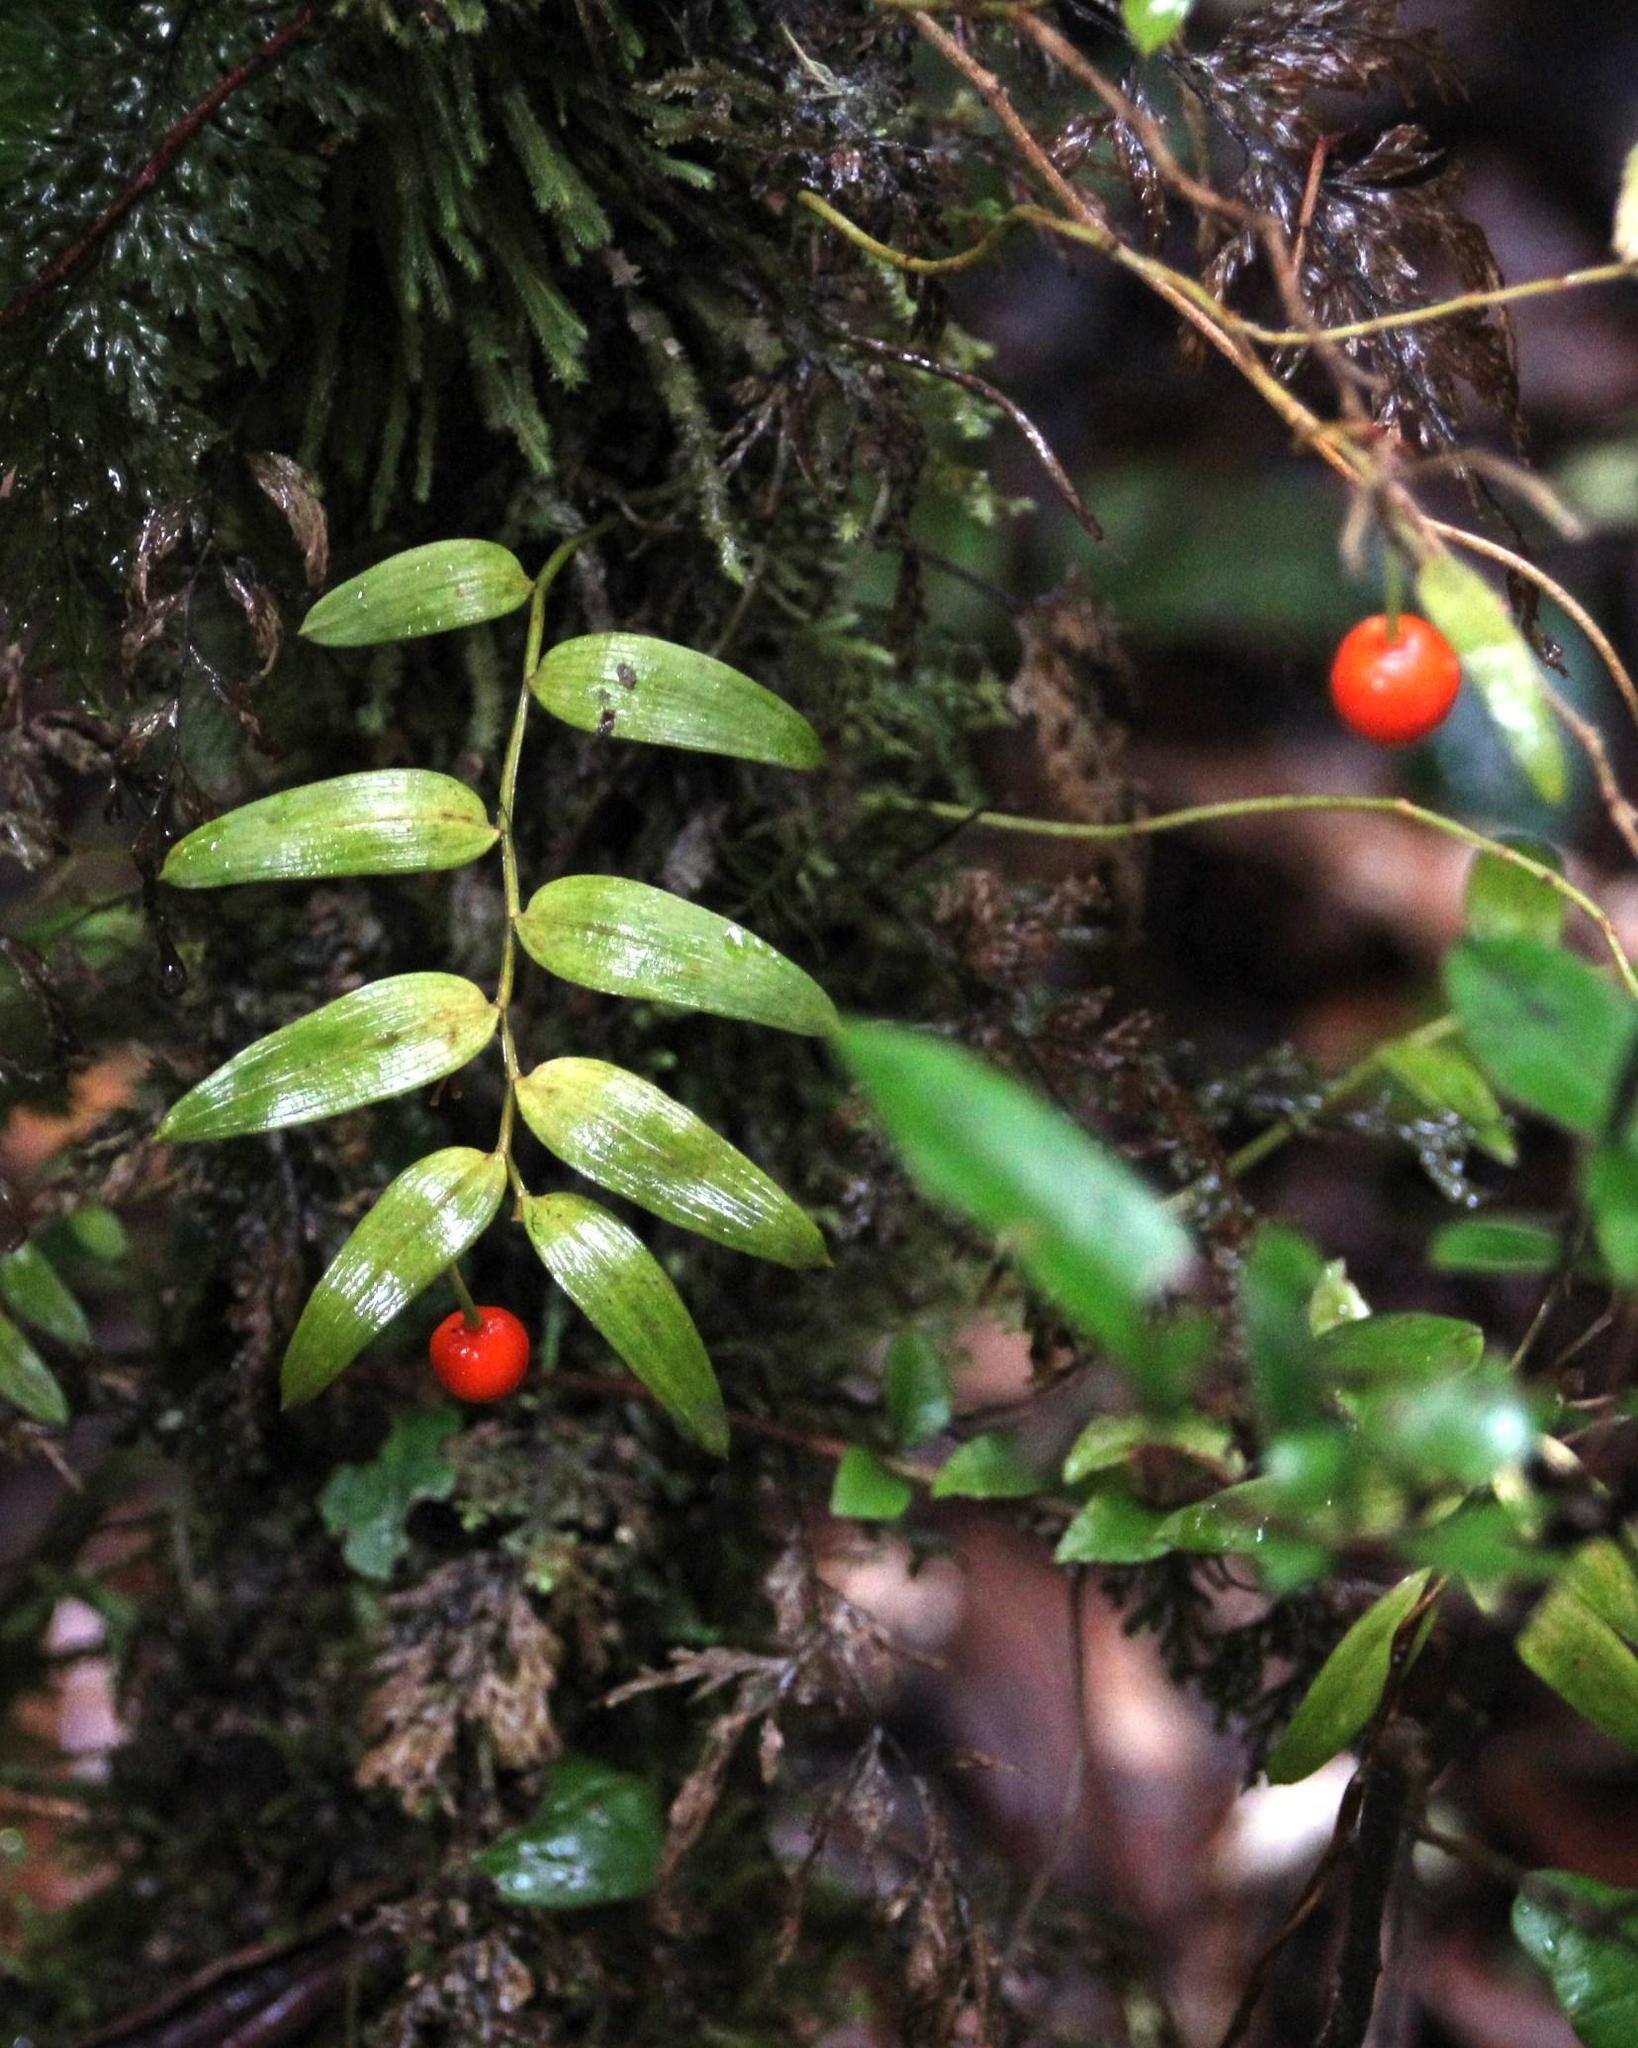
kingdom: Plantae
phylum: Tracheophyta
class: Liliopsida
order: Liliales
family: Alstroemeriaceae
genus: Luzuriaga
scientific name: Luzuriaga polyphylla
